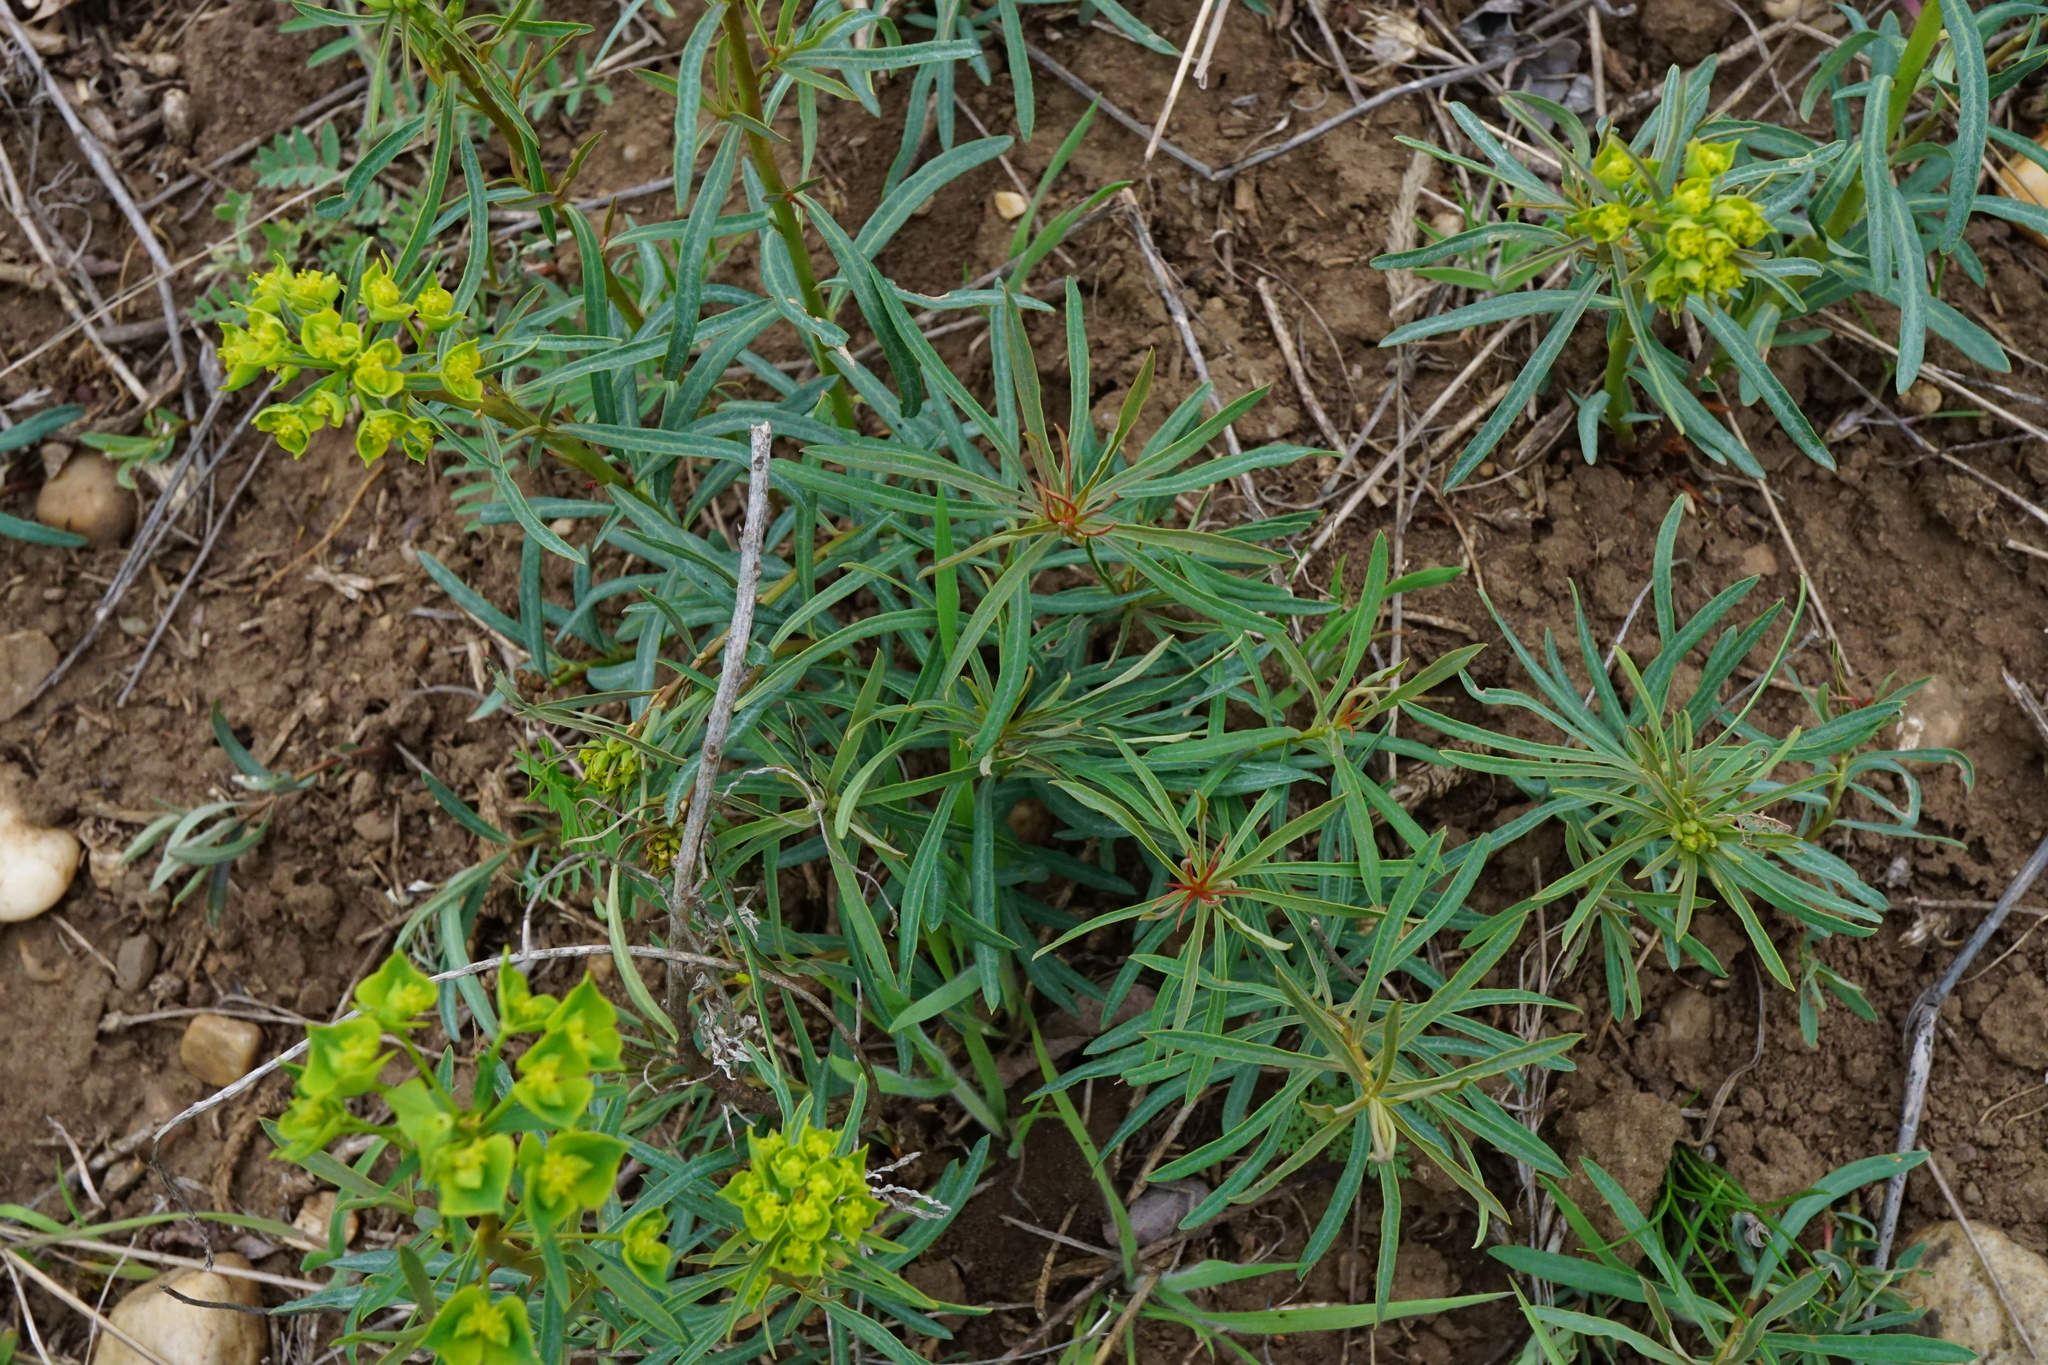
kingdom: Plantae
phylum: Tracheophyta
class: Magnoliopsida
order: Malpighiales
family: Euphorbiaceae
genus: Euphorbia
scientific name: Euphorbia esula
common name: Leafy spurge
